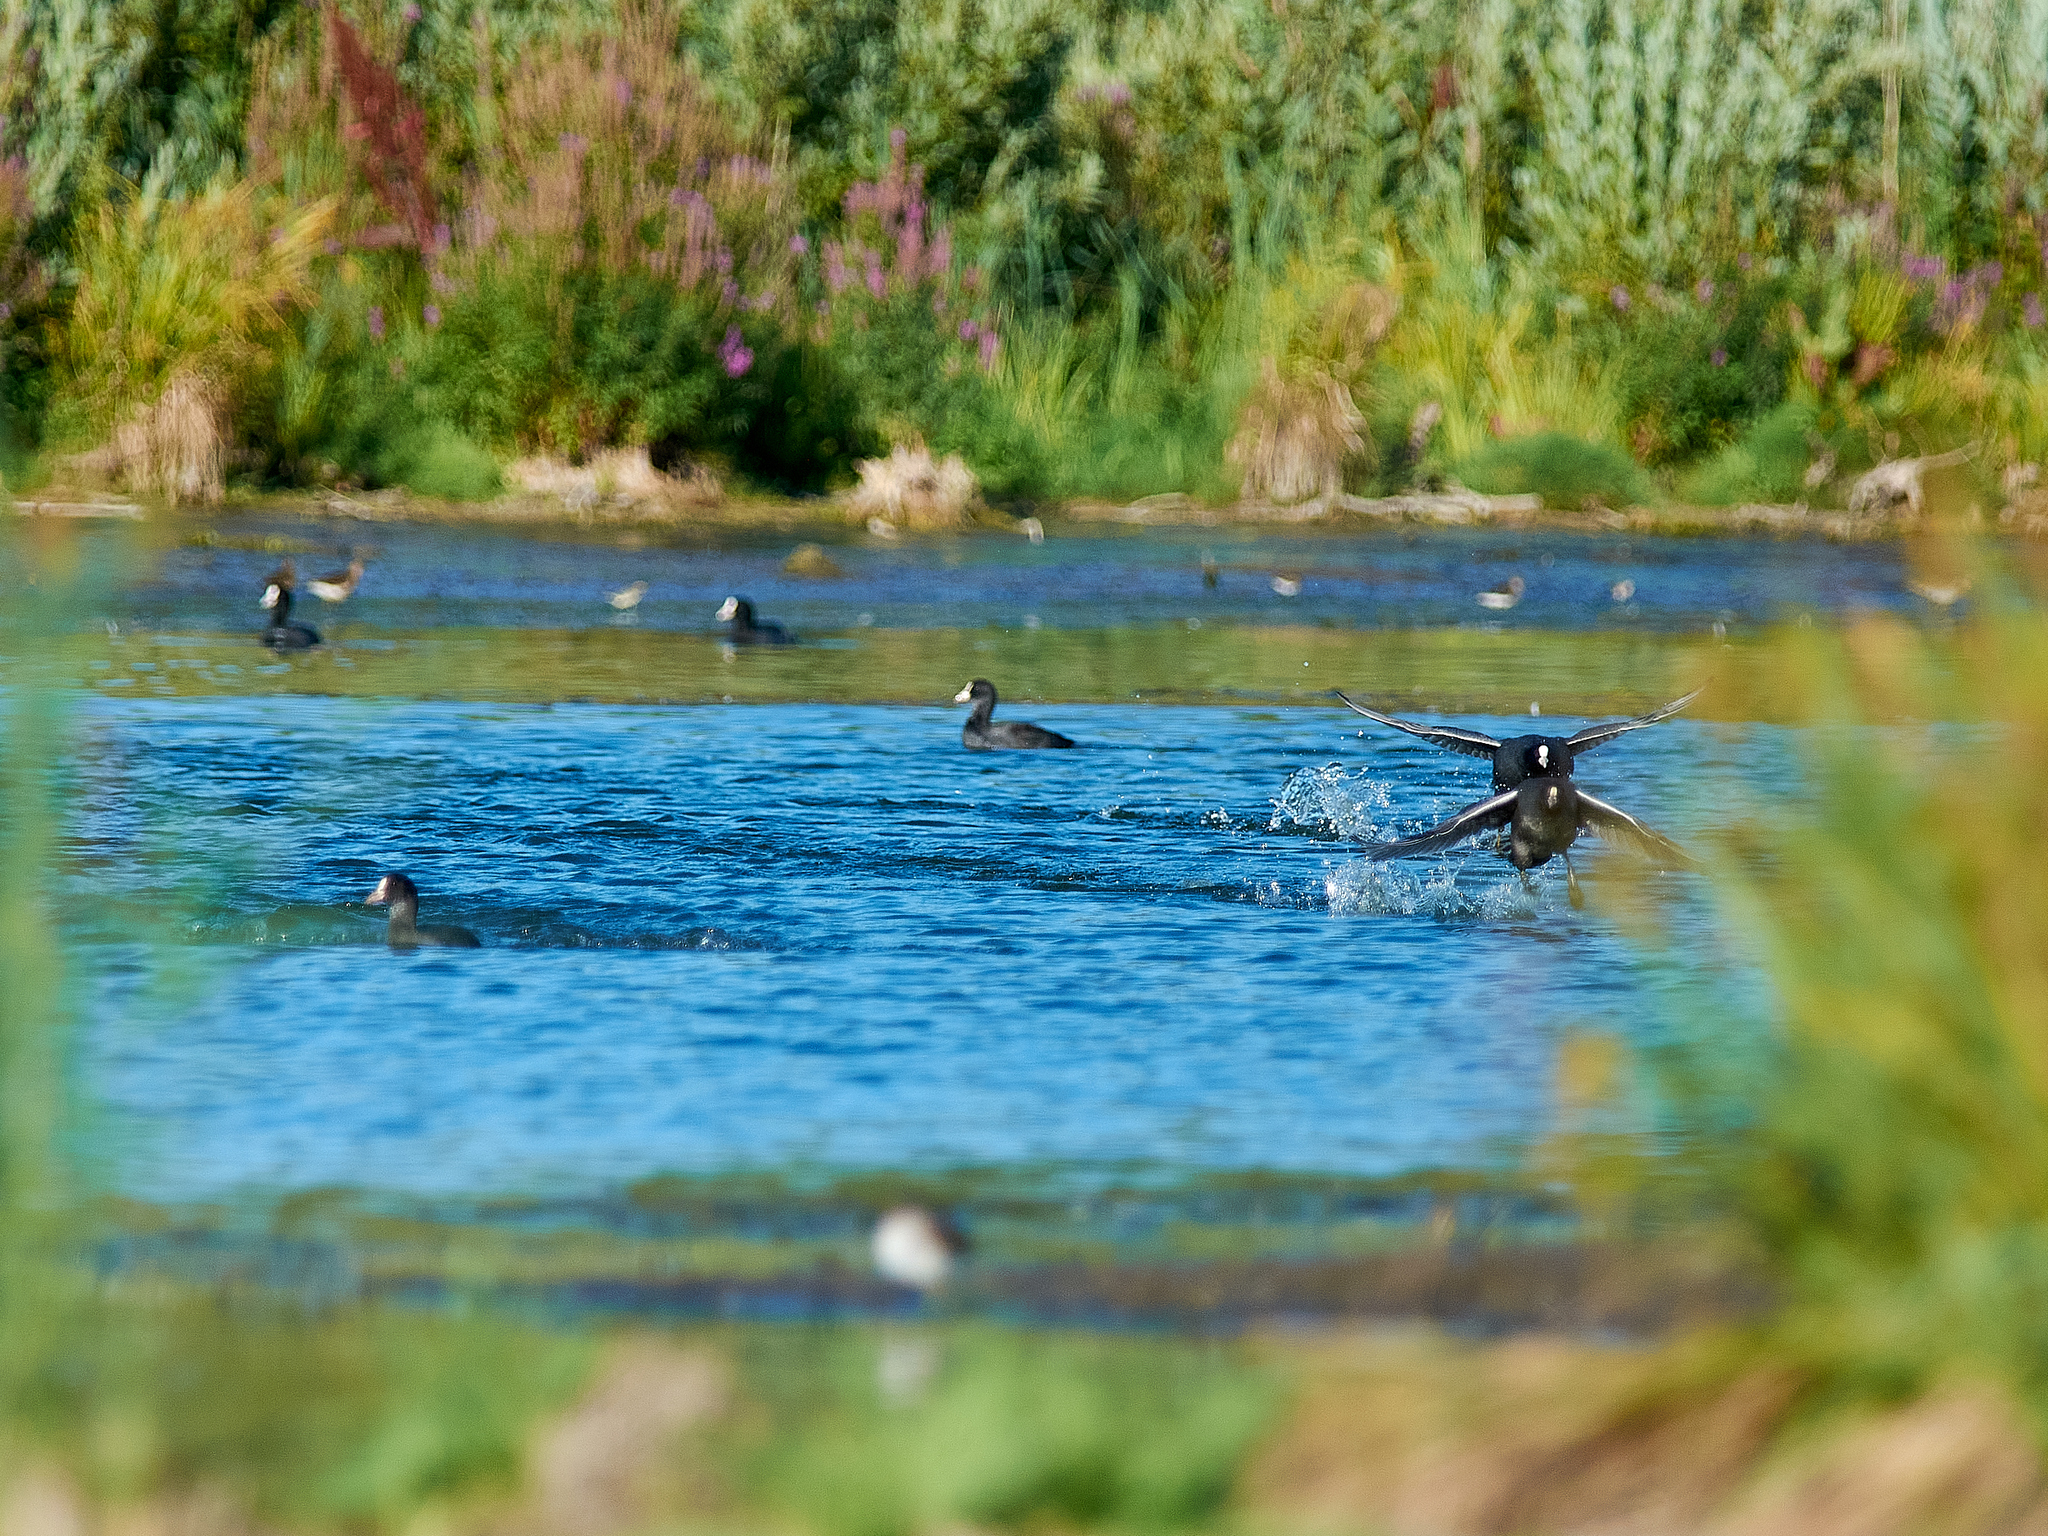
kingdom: Animalia
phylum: Chordata
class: Aves
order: Gruiformes
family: Rallidae
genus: Fulica
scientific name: Fulica atra
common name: Eurasian coot
